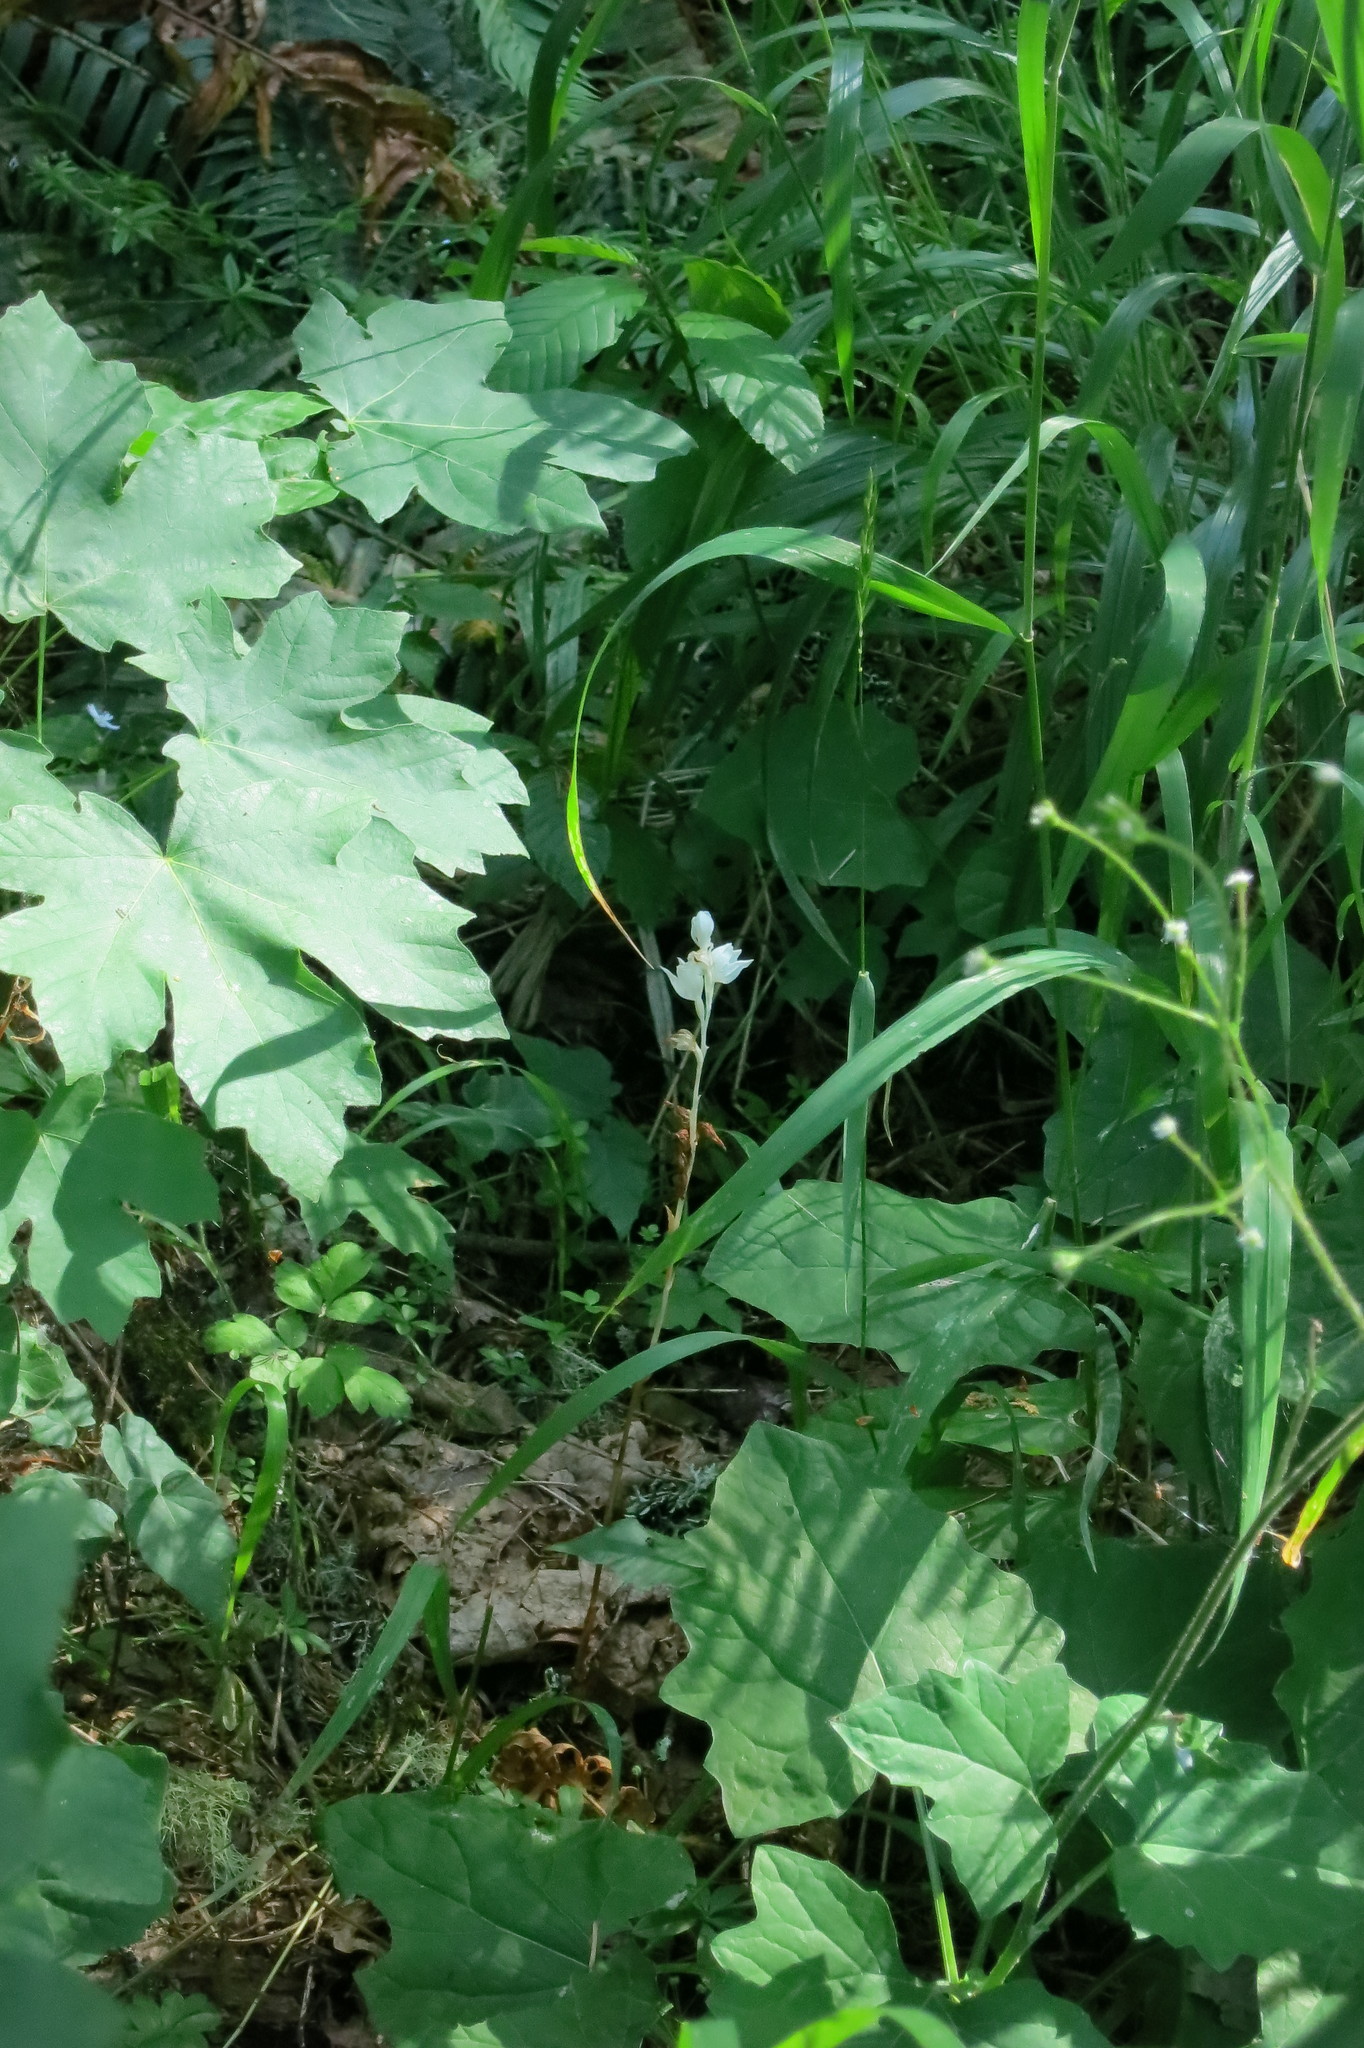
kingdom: Plantae
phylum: Tracheophyta
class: Liliopsida
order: Asparagales
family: Orchidaceae
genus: Cephalanthera
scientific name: Cephalanthera austiniae
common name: Phantom orchid
